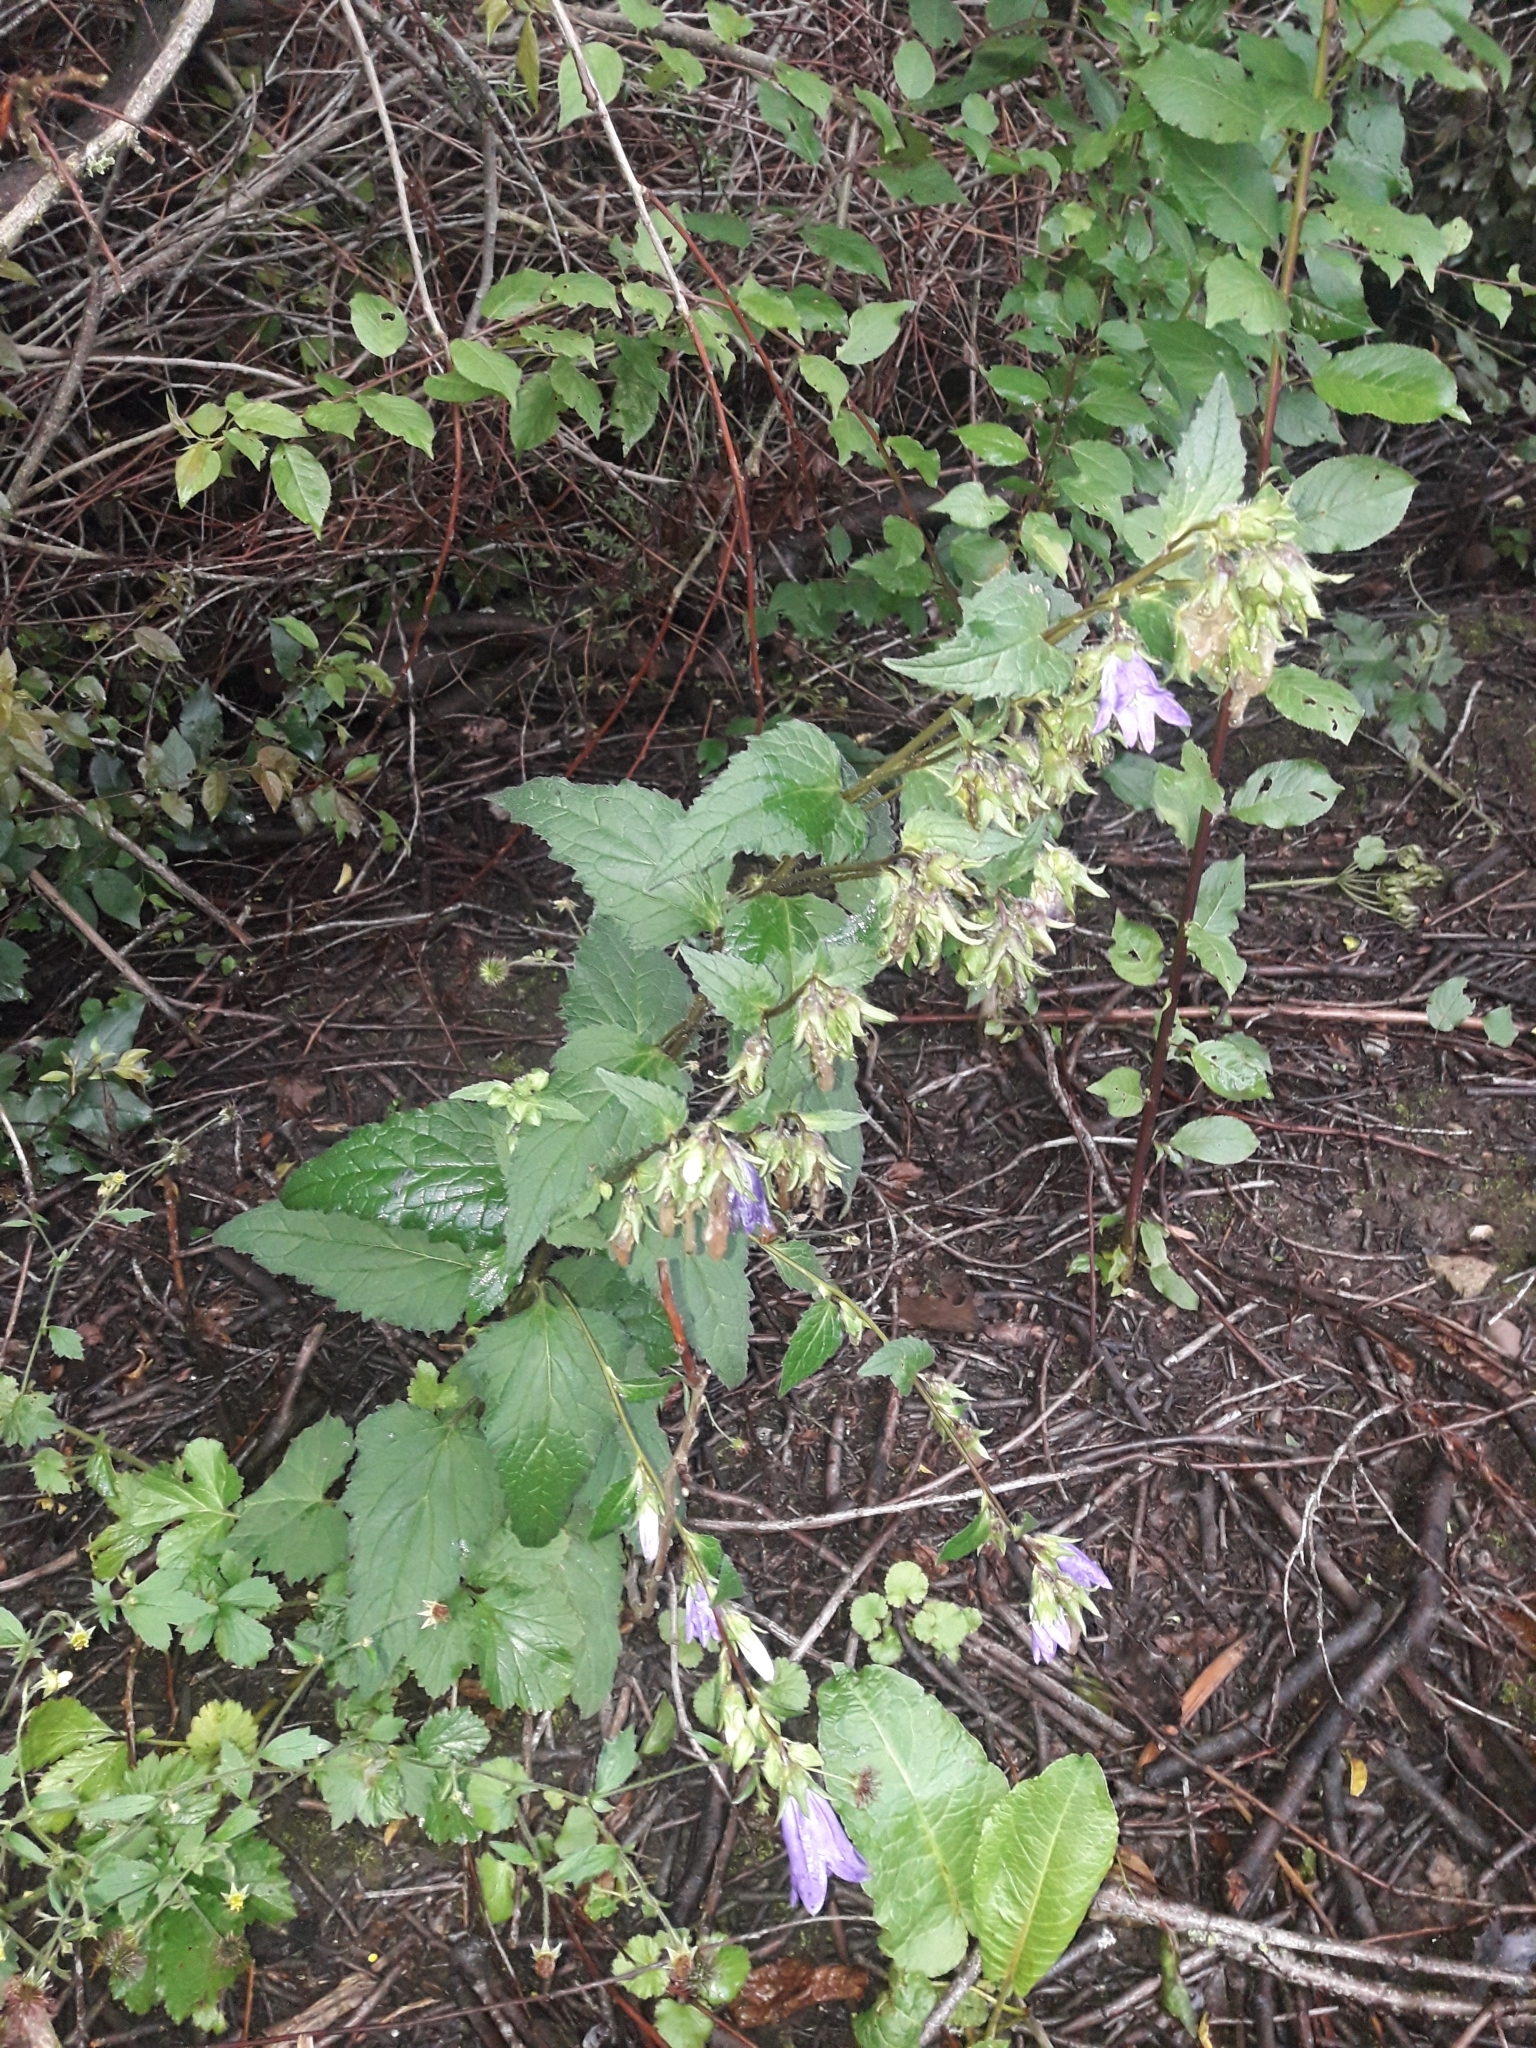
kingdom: Plantae
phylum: Tracheophyta
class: Magnoliopsida
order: Asterales
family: Campanulaceae
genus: Campanula
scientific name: Campanula trachelium
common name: Nettle-leaved bellflower
